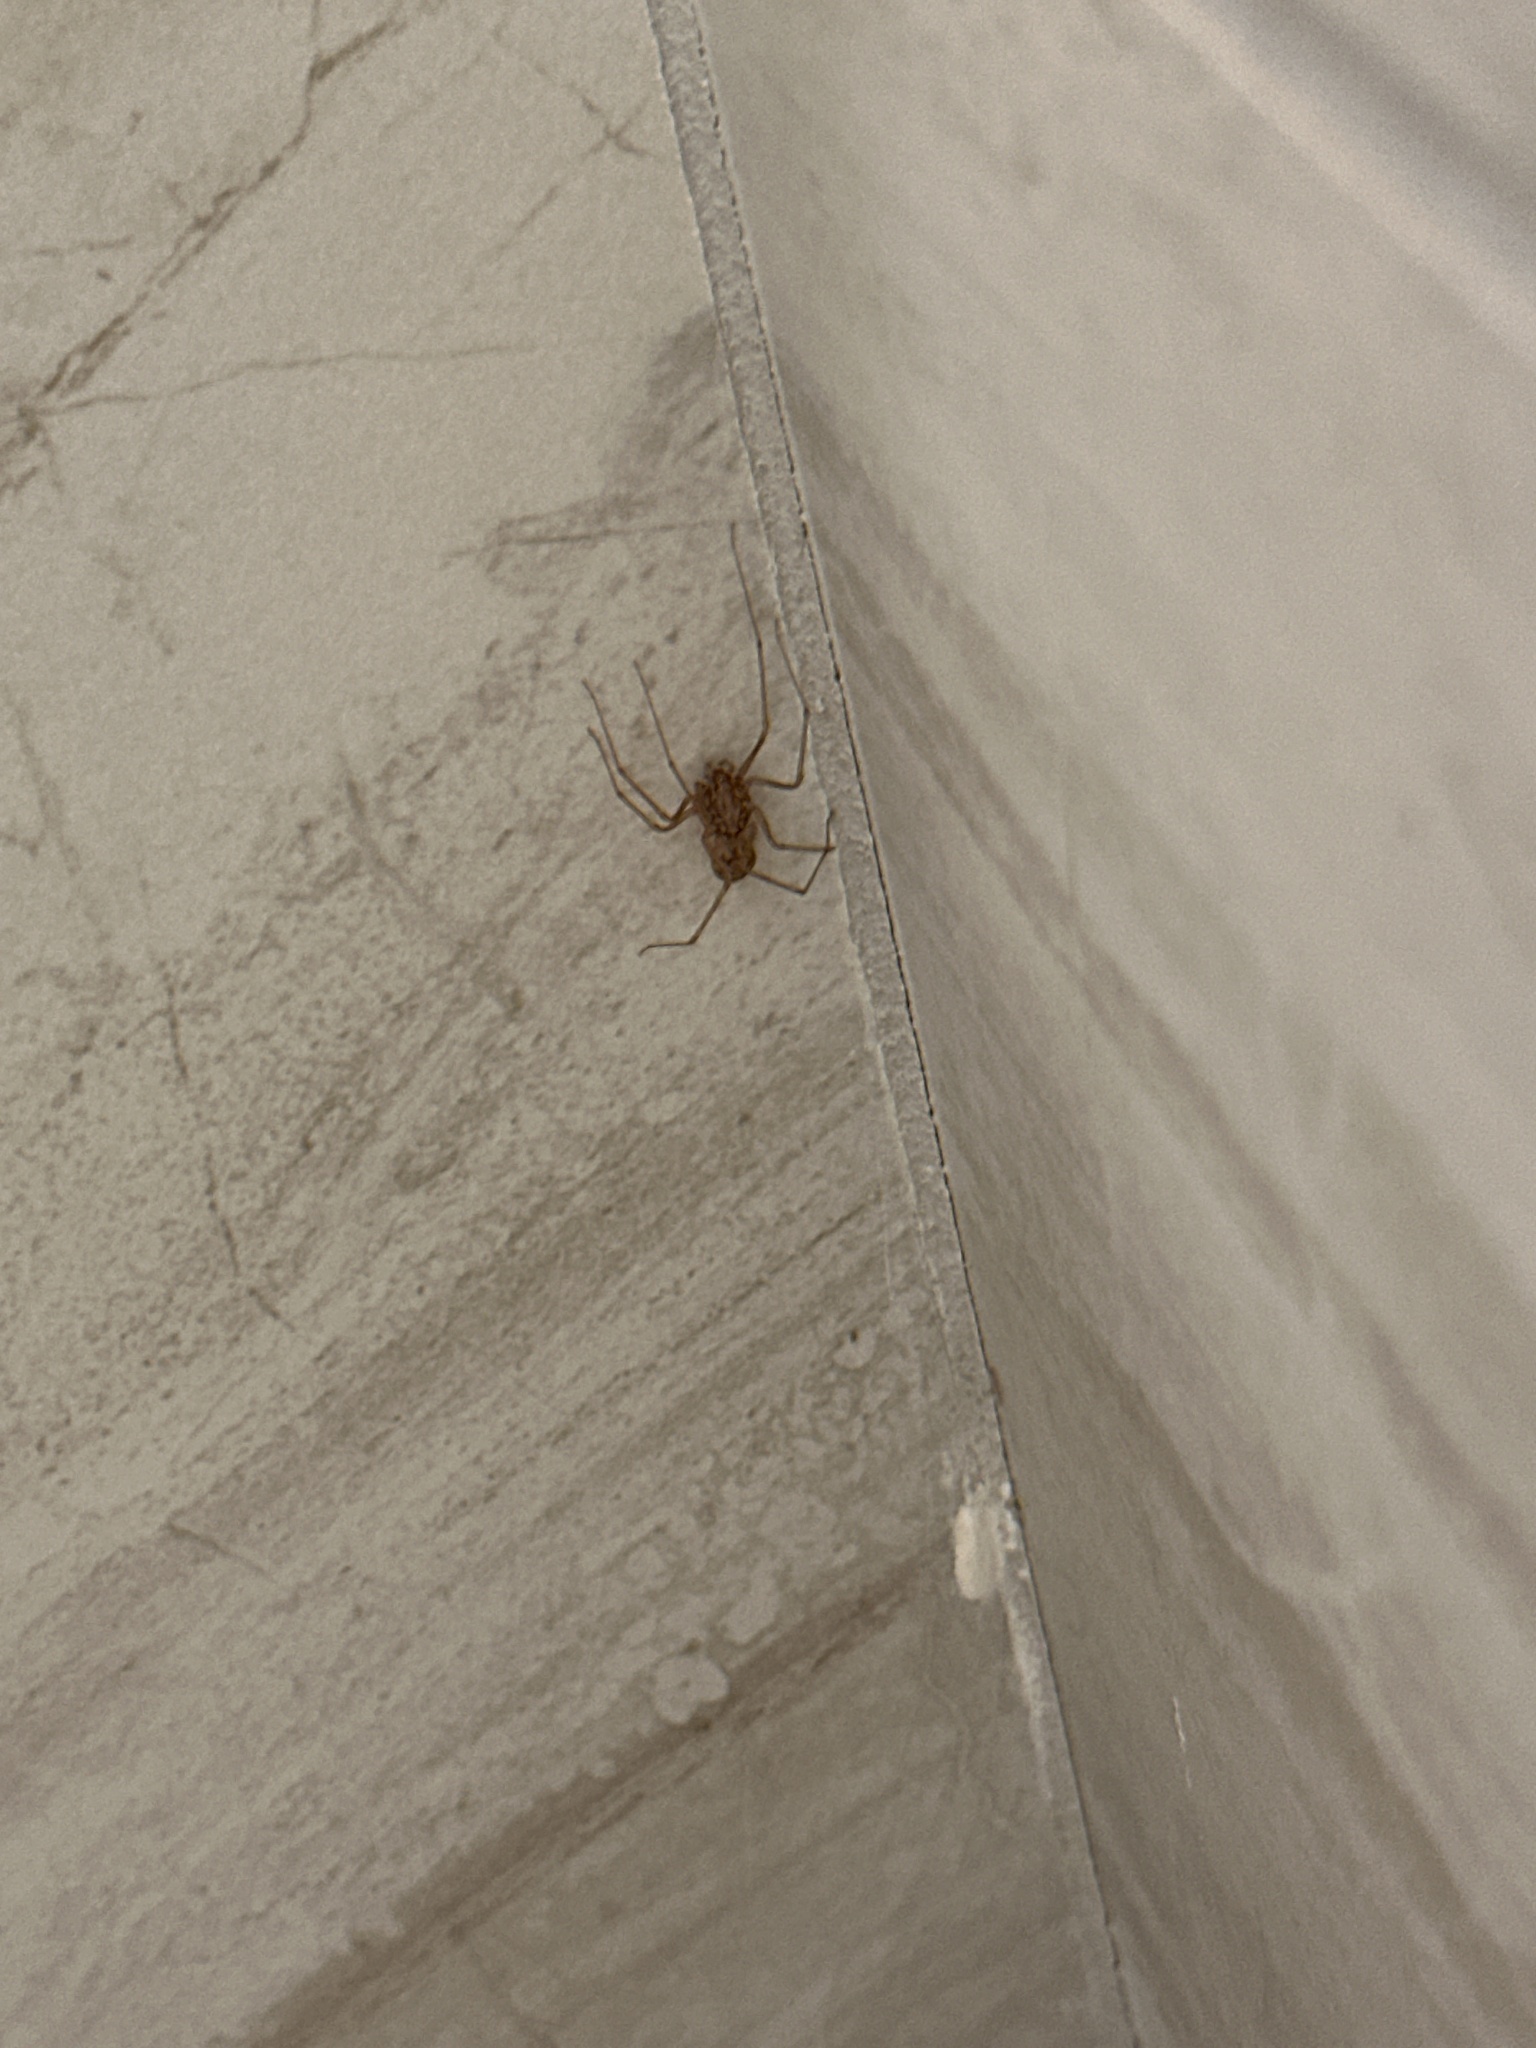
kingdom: Animalia
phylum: Arthropoda
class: Arachnida
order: Araneae
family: Scytodidae
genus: Scytodes
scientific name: Scytodes univittata
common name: Spitting spider
